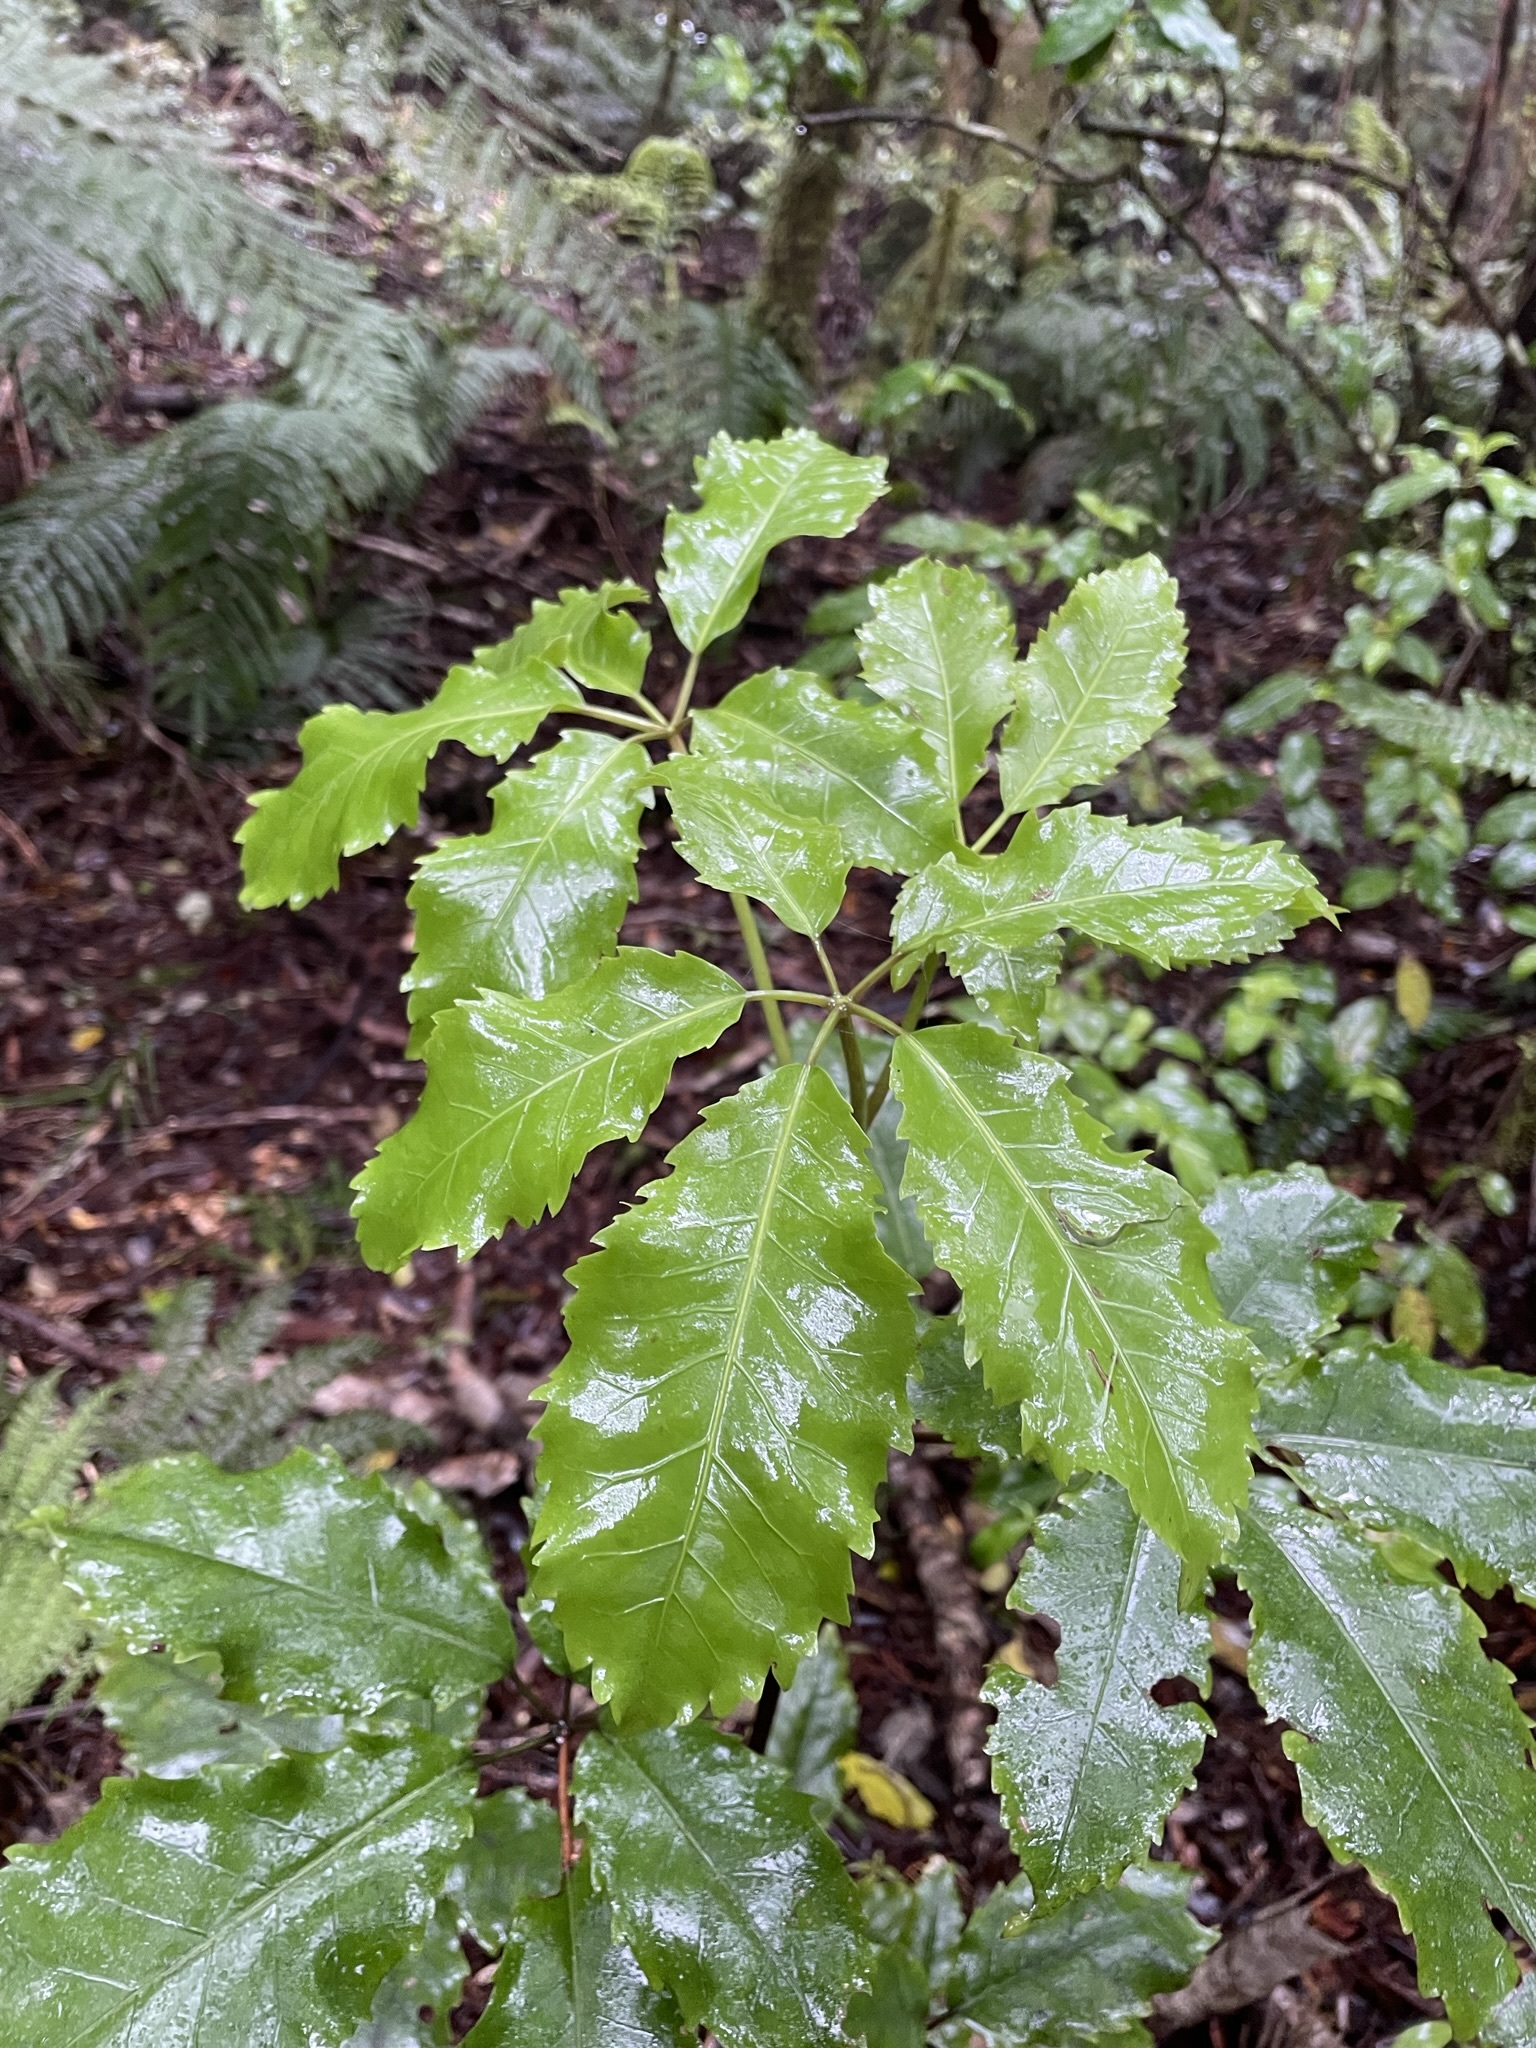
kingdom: Plantae
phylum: Tracheophyta
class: Magnoliopsida
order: Apiales
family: Araliaceae
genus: Neopanax
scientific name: Neopanax arboreus
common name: Five-fingers
